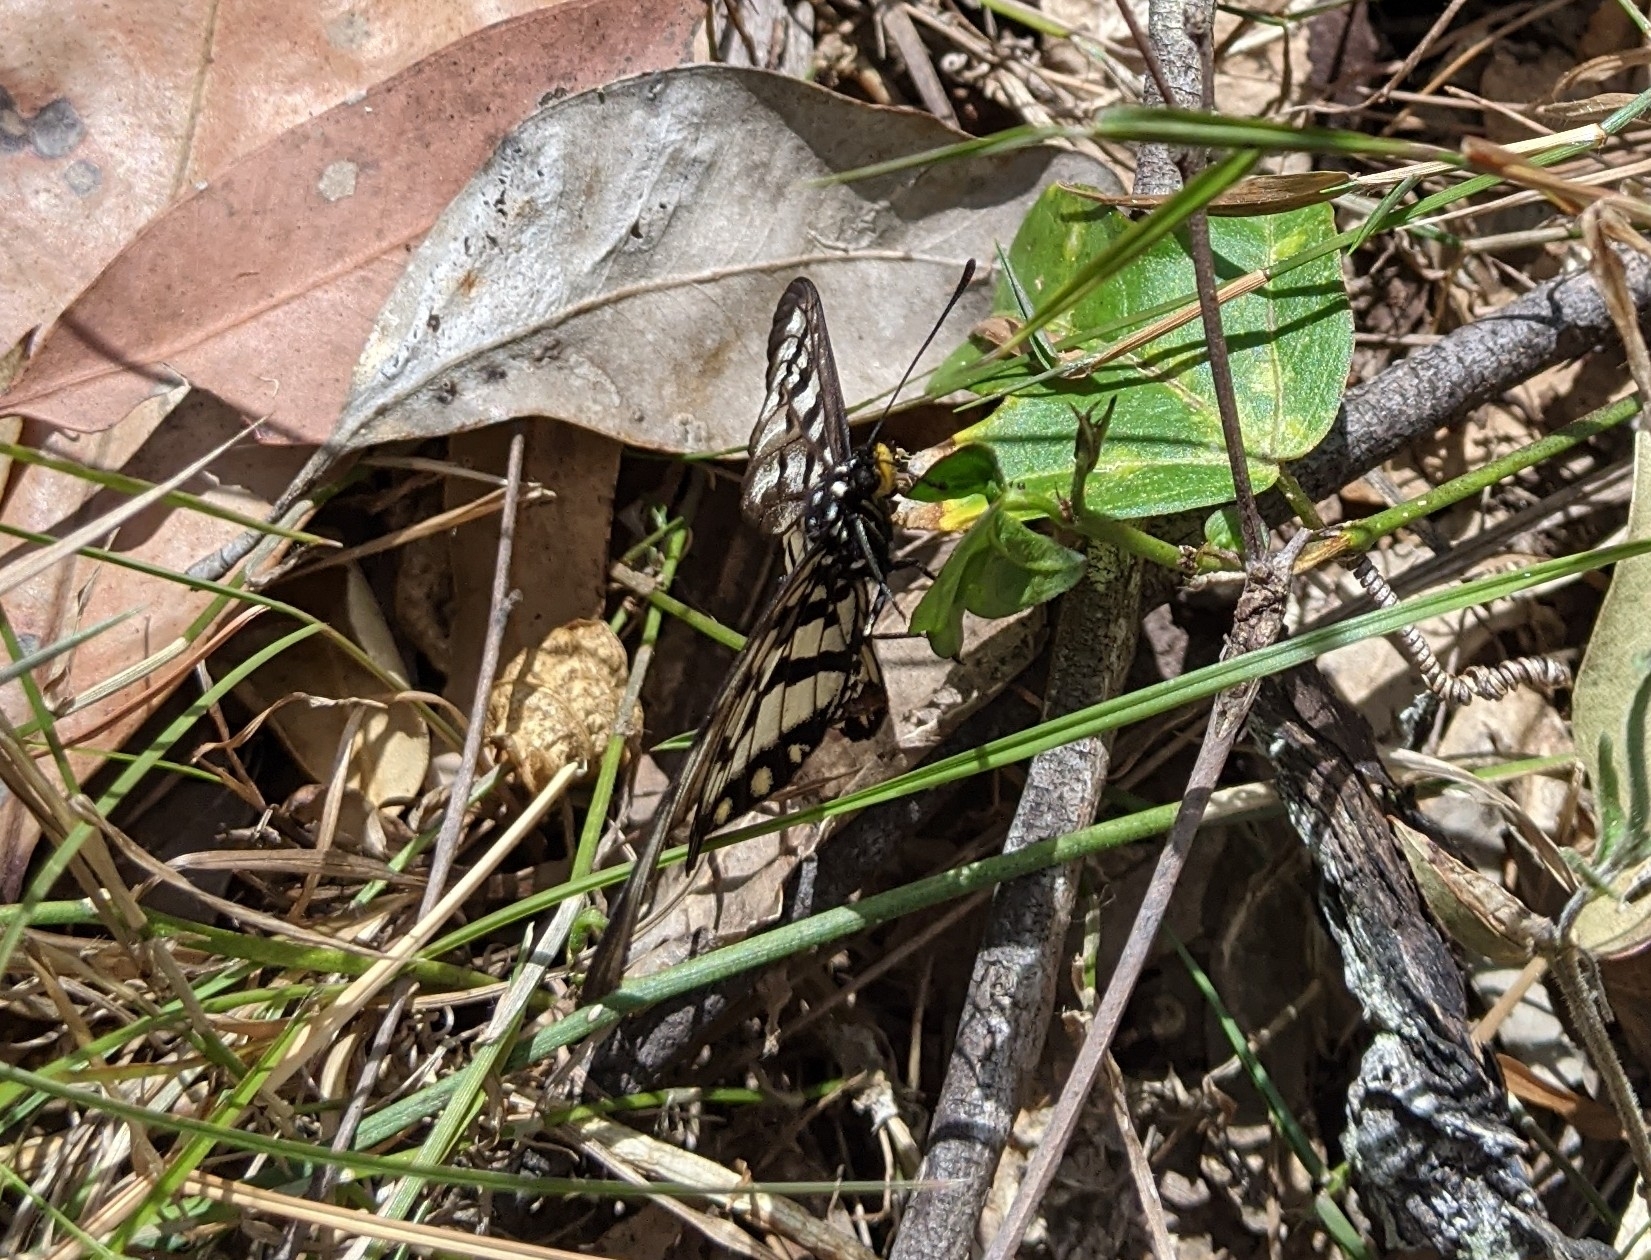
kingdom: Animalia
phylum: Arthropoda
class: Insecta
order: Lepidoptera
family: Nymphalidae
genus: Acraea
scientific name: Acraea andromacha
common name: Glasswing
